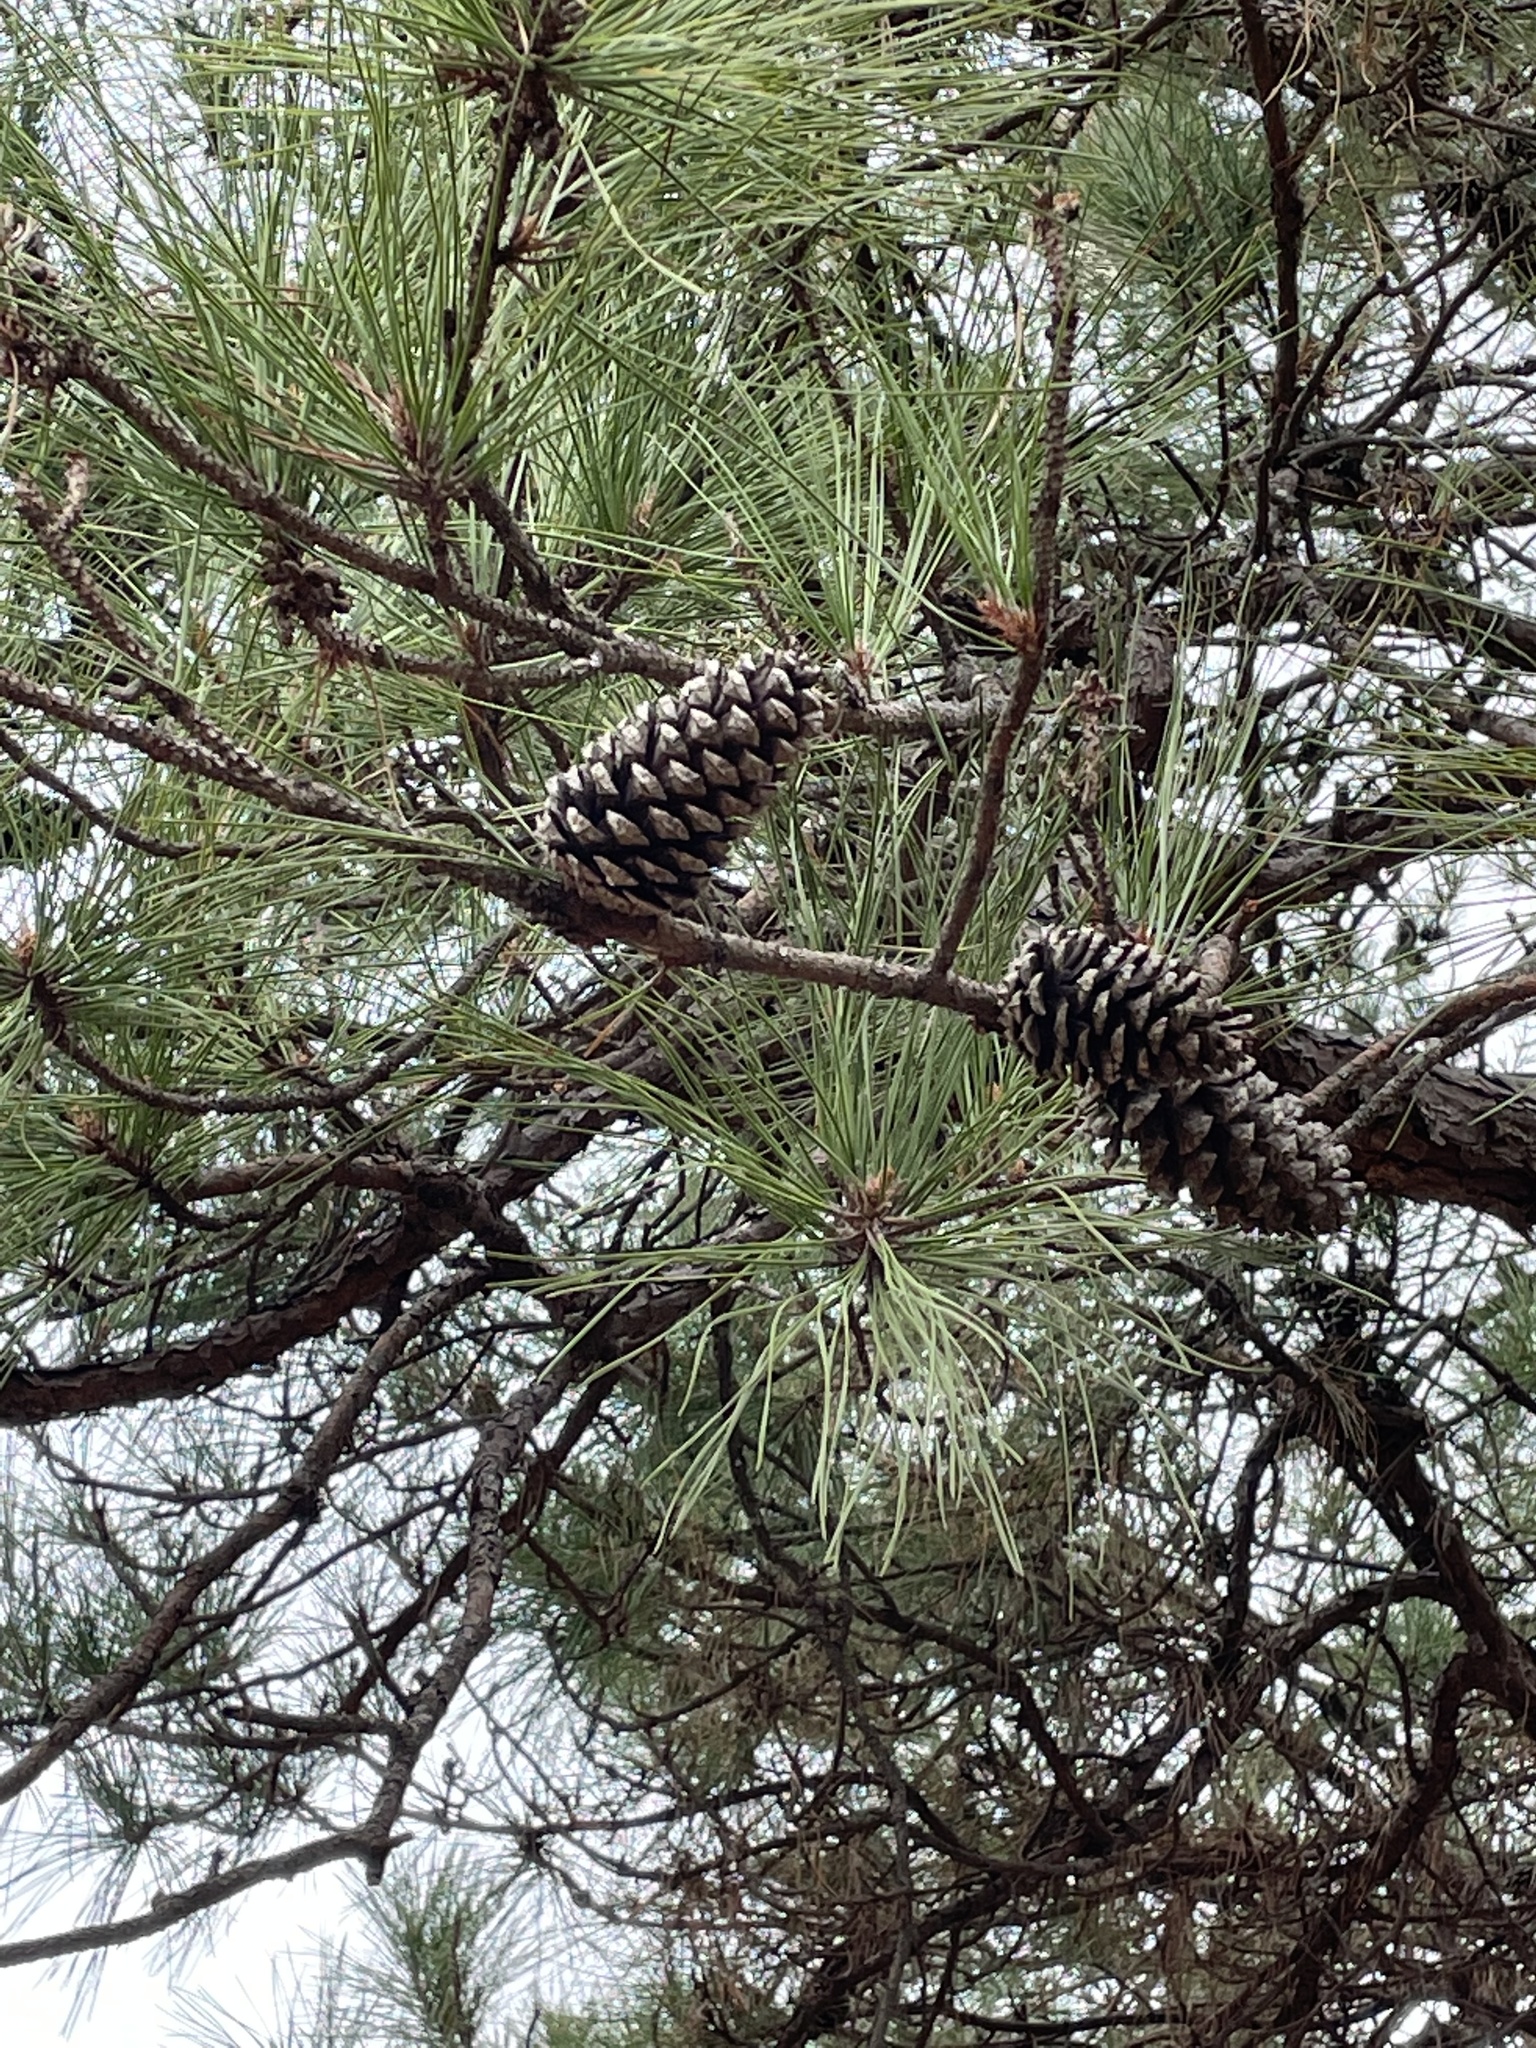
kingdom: Plantae
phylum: Tracheophyta
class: Pinopsida
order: Pinales
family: Pinaceae
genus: Pinus
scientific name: Pinus taeda
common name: Loblolly pine
